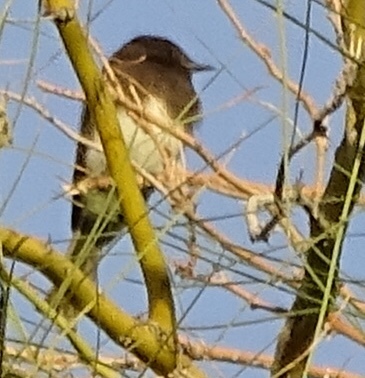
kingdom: Animalia
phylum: Chordata
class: Aves
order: Passeriformes
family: Tyrannidae
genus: Sayornis
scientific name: Sayornis nigricans
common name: Black phoebe
